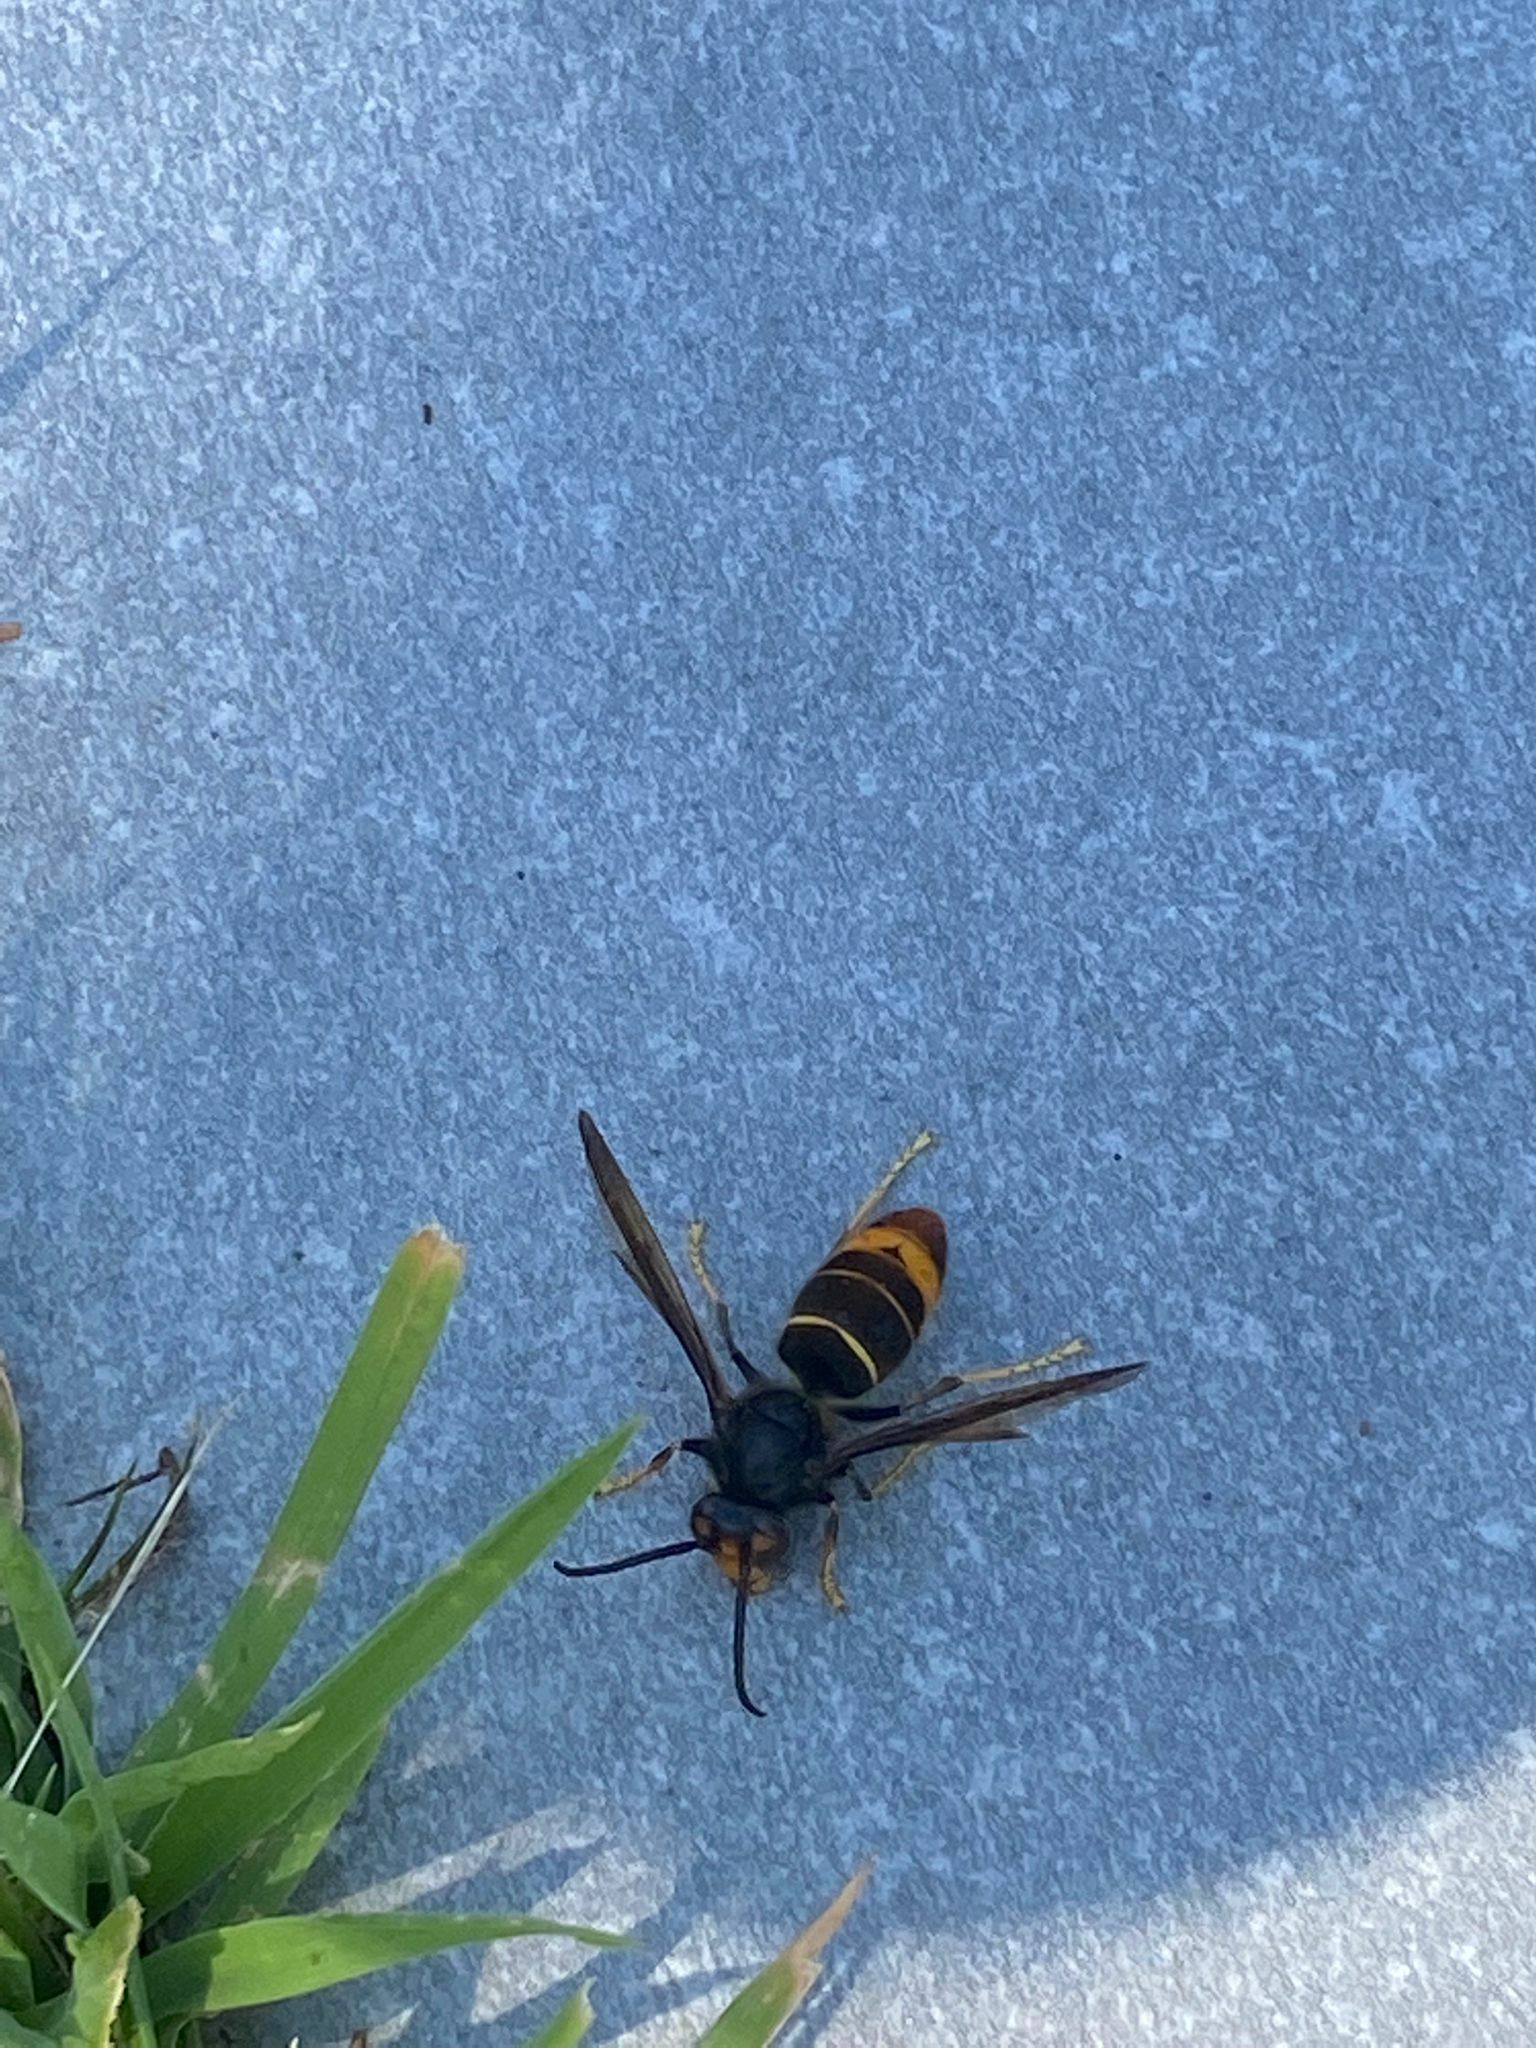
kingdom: Animalia
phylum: Arthropoda
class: Insecta
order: Hymenoptera
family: Vespidae
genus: Vespa
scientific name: Vespa velutina
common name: Asian hornet
